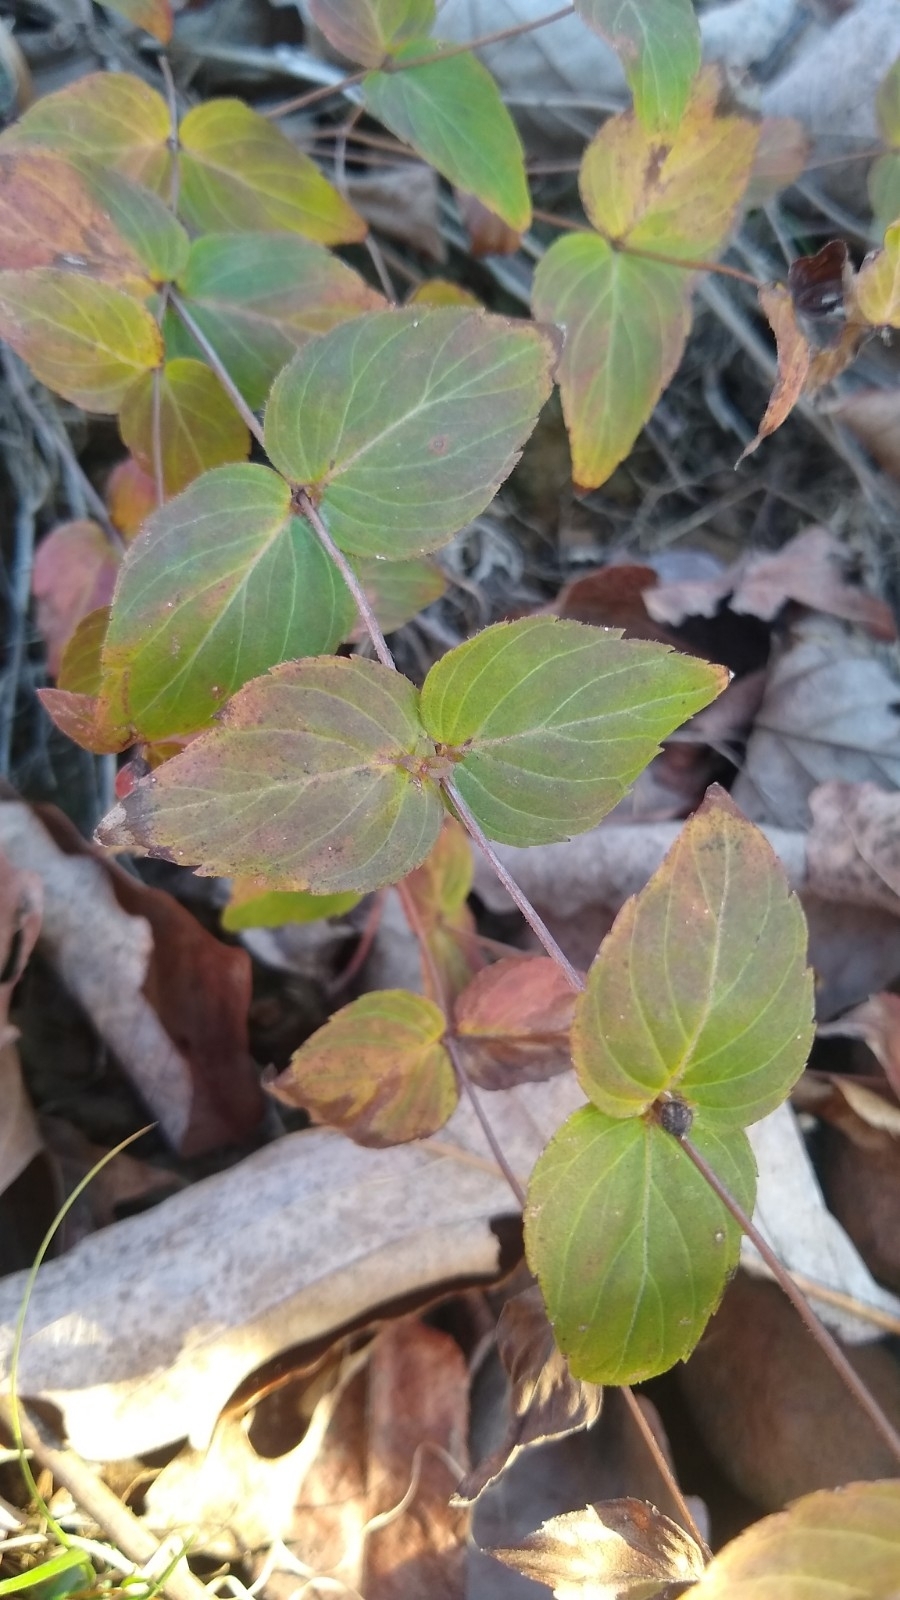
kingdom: Plantae
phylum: Tracheophyta
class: Magnoliopsida
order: Lamiales
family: Lamiaceae
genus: Cunila
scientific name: Cunila origanoides
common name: American dittany
